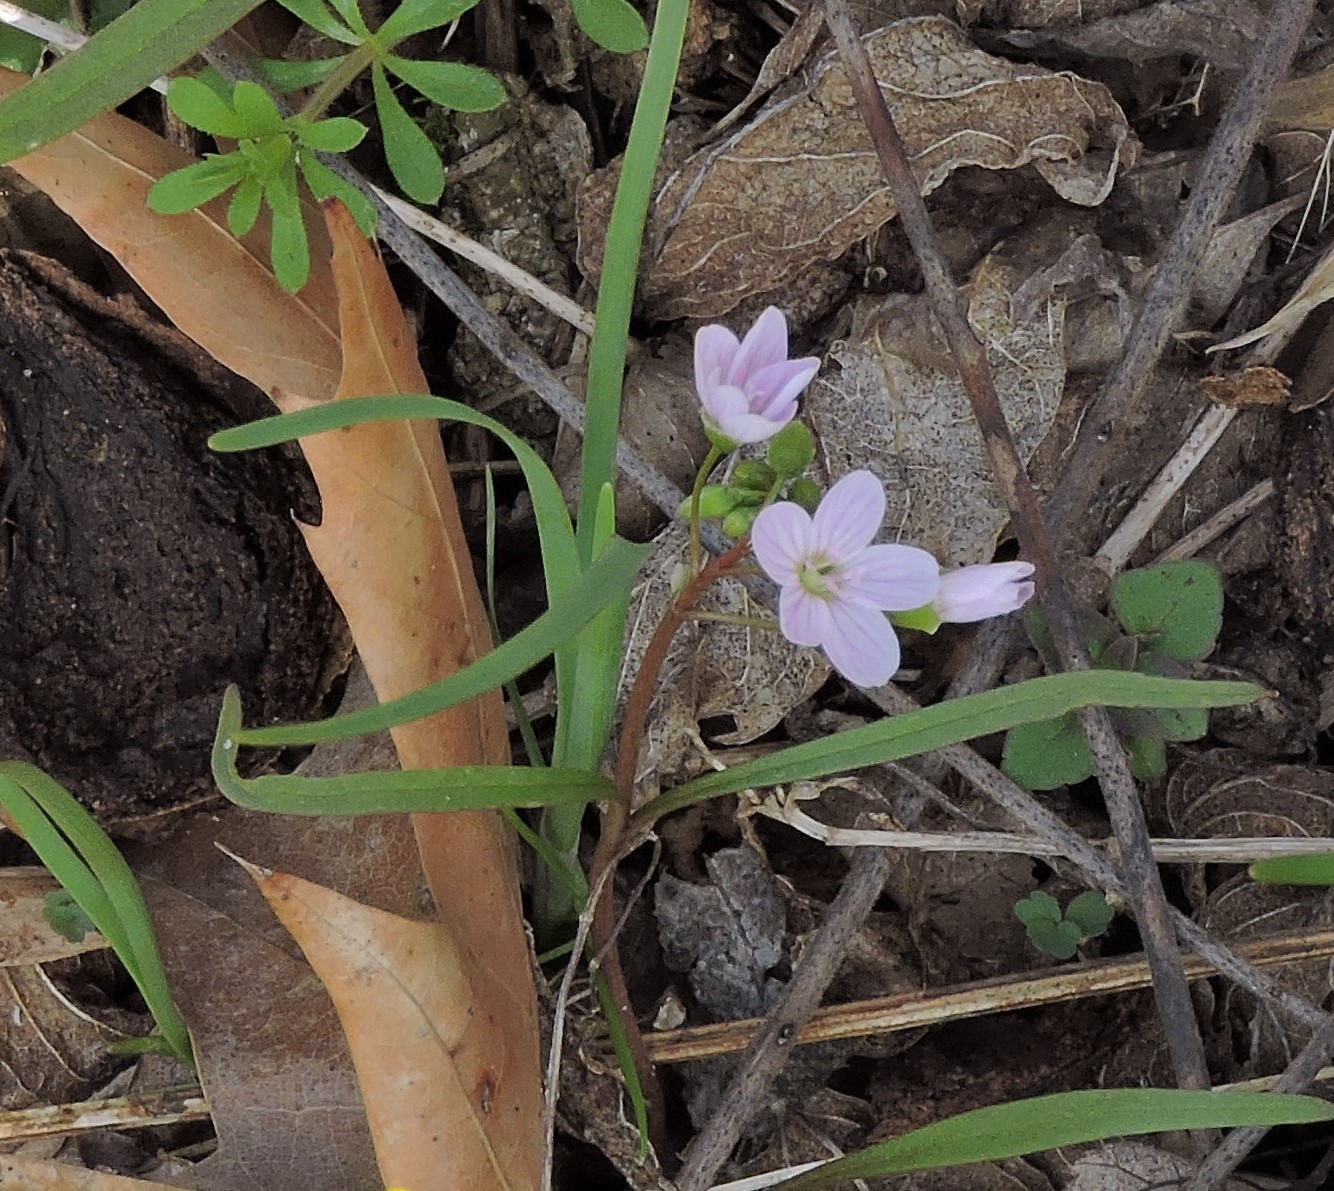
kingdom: Plantae
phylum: Tracheophyta
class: Magnoliopsida
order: Caryophyllales
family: Montiaceae
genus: Claytonia
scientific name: Claytonia virginica
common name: Virginia springbeauty
